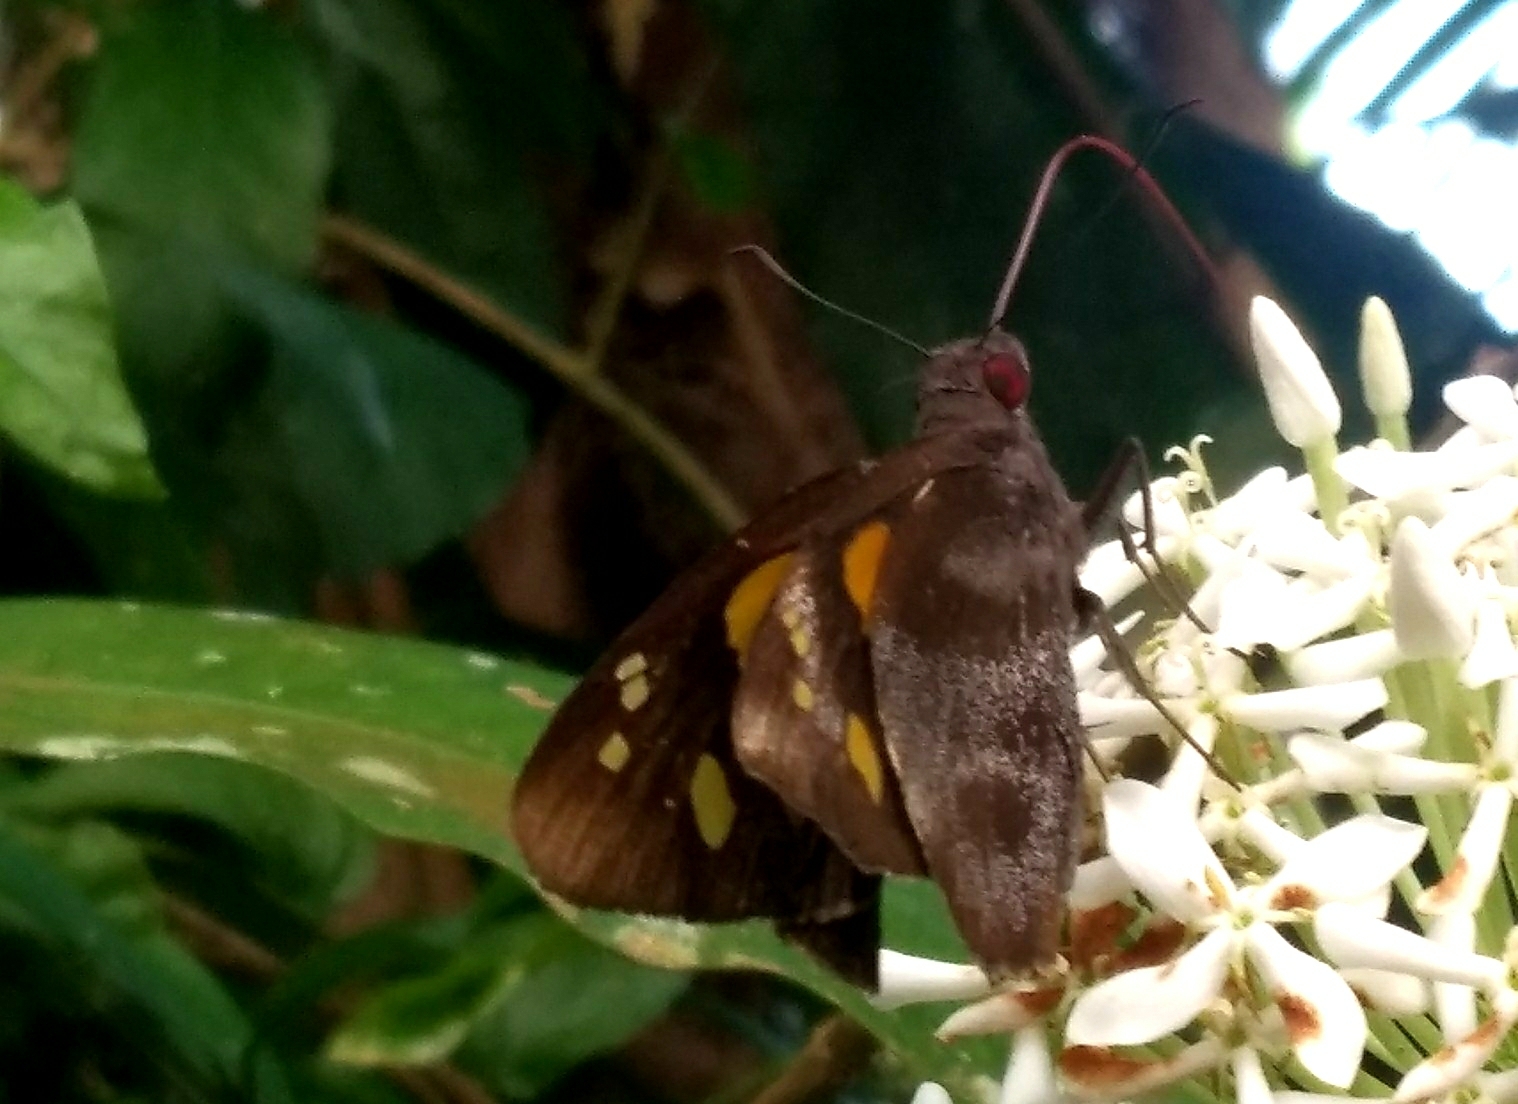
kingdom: Animalia
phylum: Arthropoda
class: Insecta
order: Lepidoptera
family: Hesperiidae
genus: Gangara
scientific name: Gangara thyrsis
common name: Giant redeye
